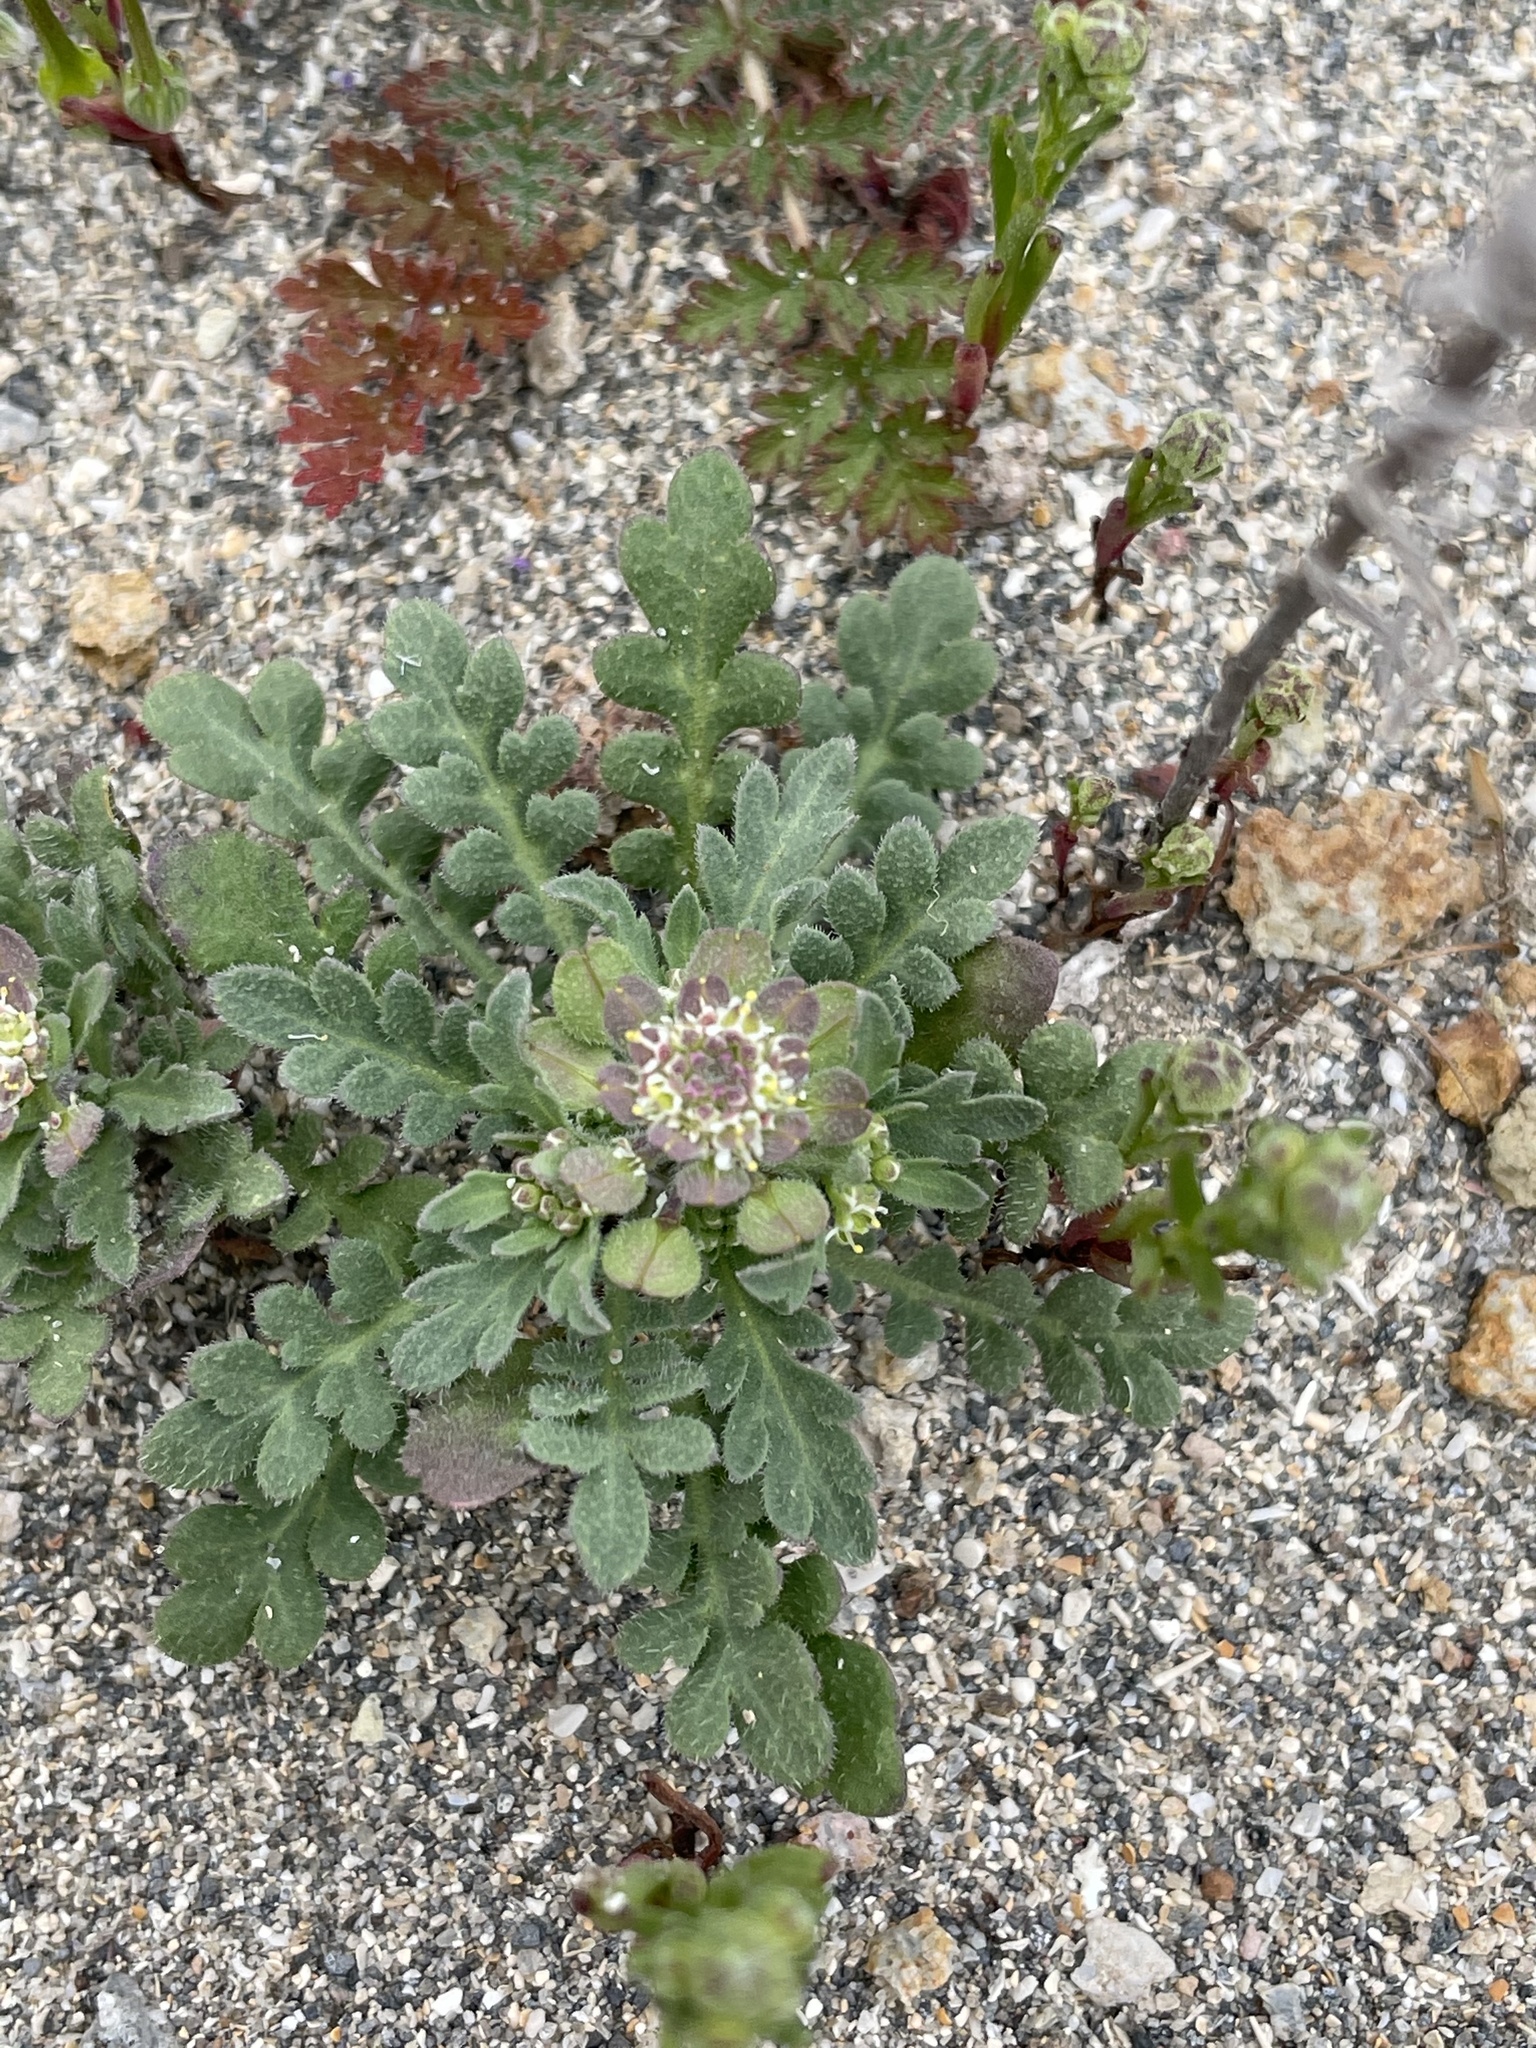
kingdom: Plantae
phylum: Tracheophyta
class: Magnoliopsida
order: Brassicales
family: Brassicaceae
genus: Lepidium
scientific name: Lepidium lasiocarpum
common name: Hairy-pod pepperwort
